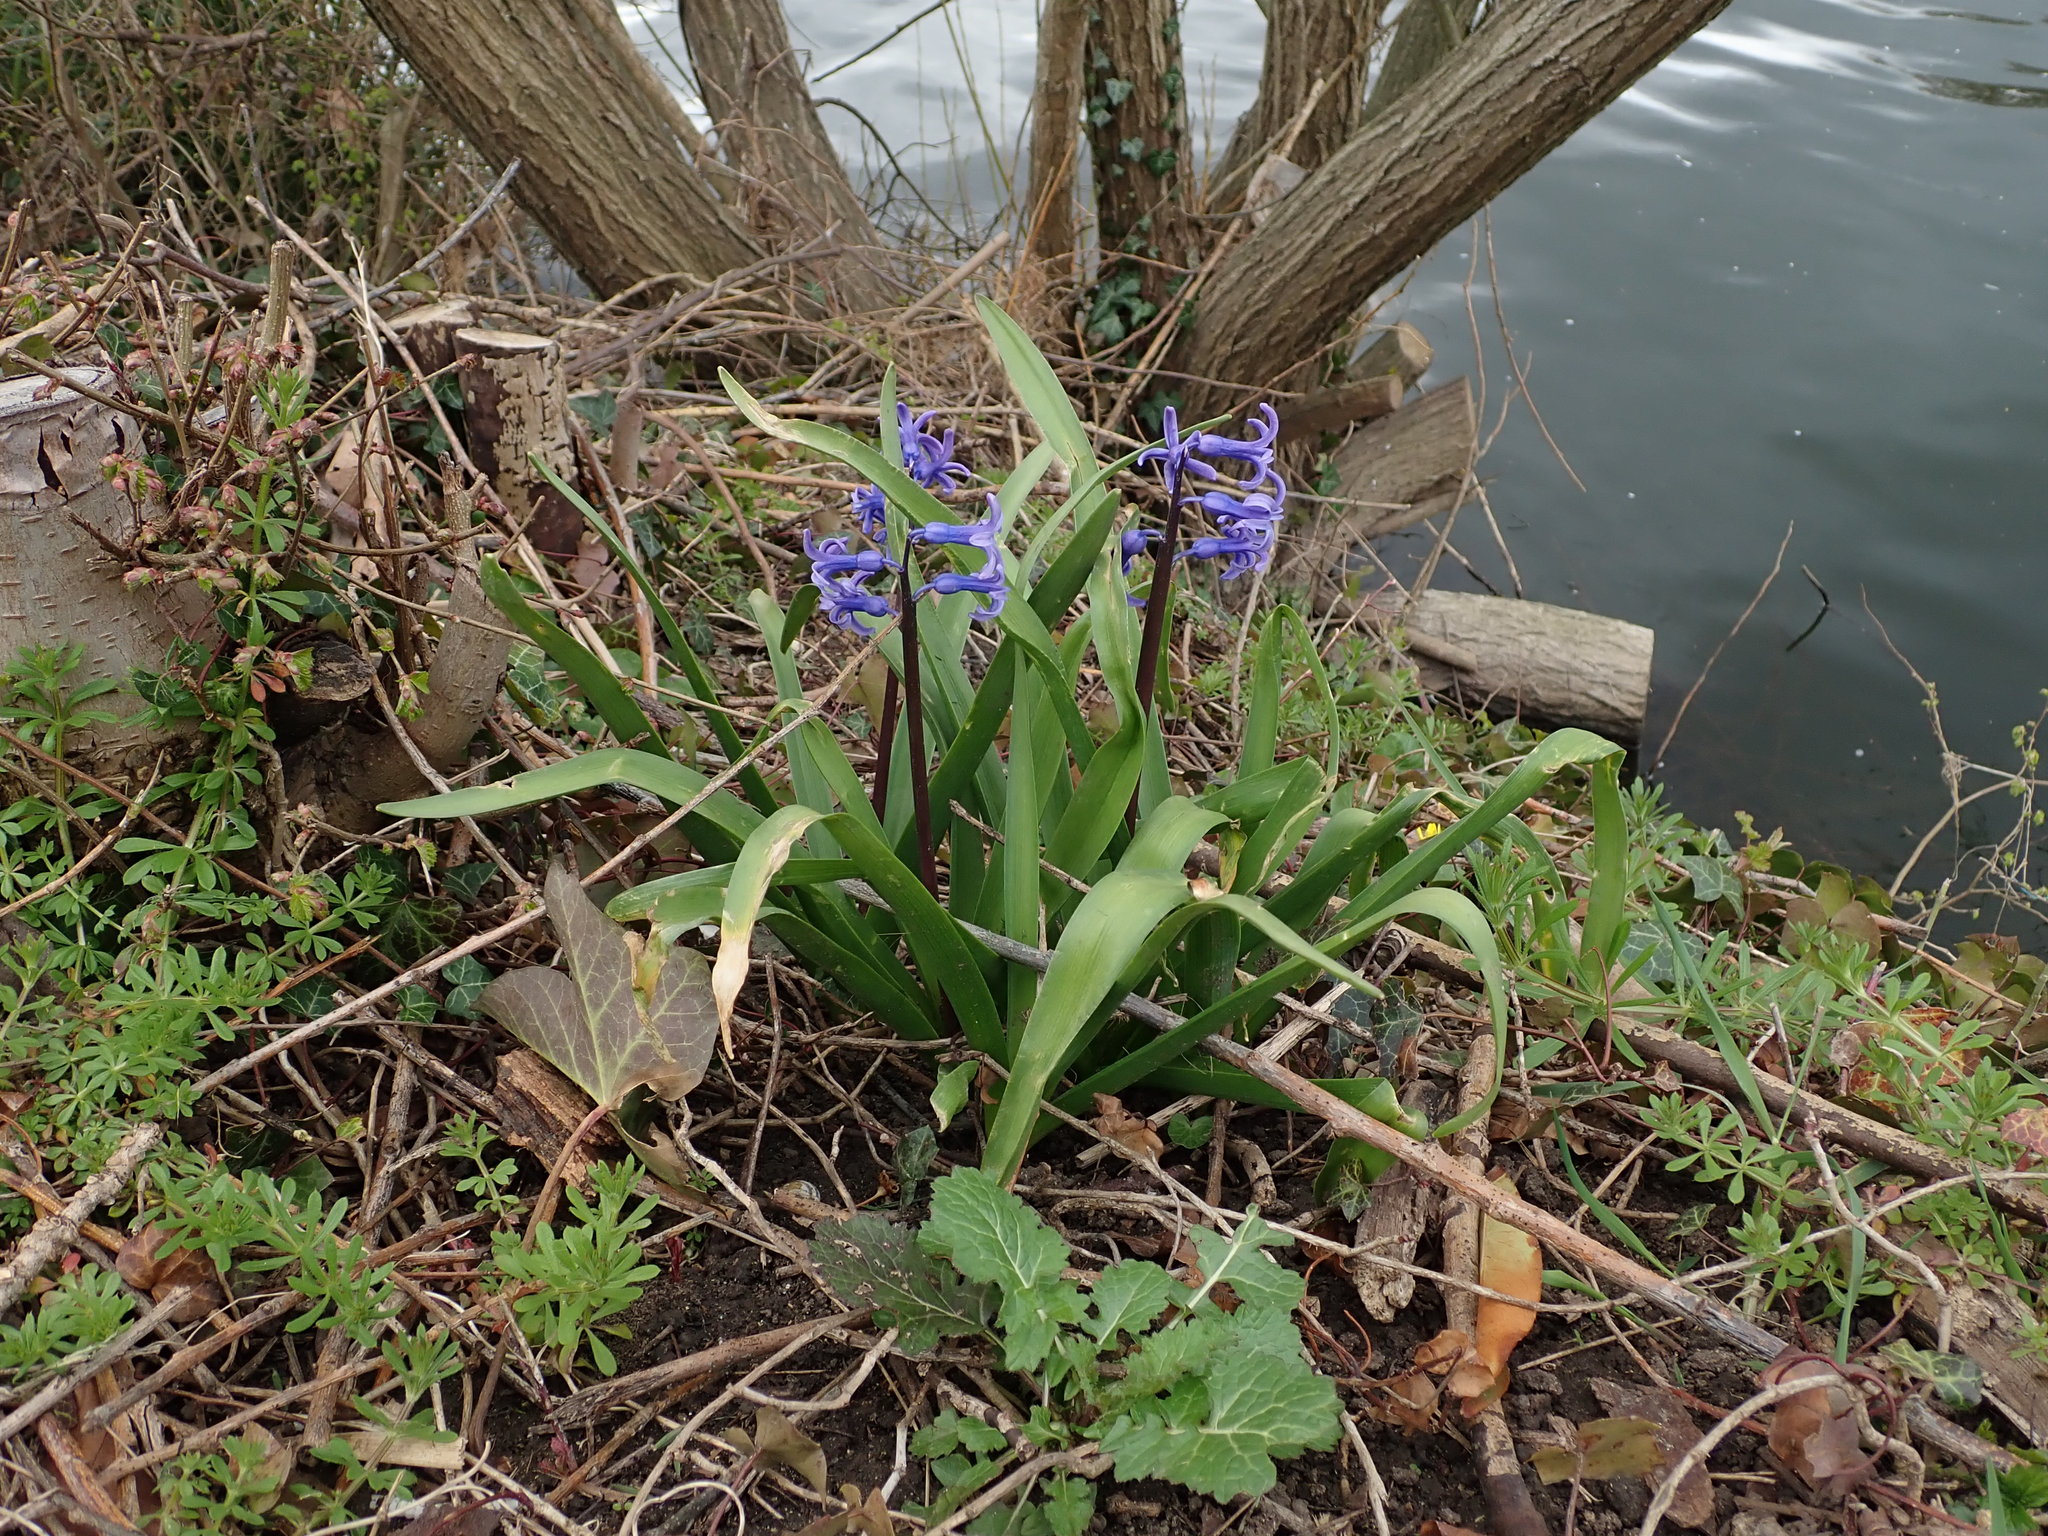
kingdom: Plantae
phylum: Tracheophyta
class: Liliopsida
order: Asparagales
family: Asparagaceae
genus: Hyacinthus
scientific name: Hyacinthus orientalis
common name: Hyacinth
